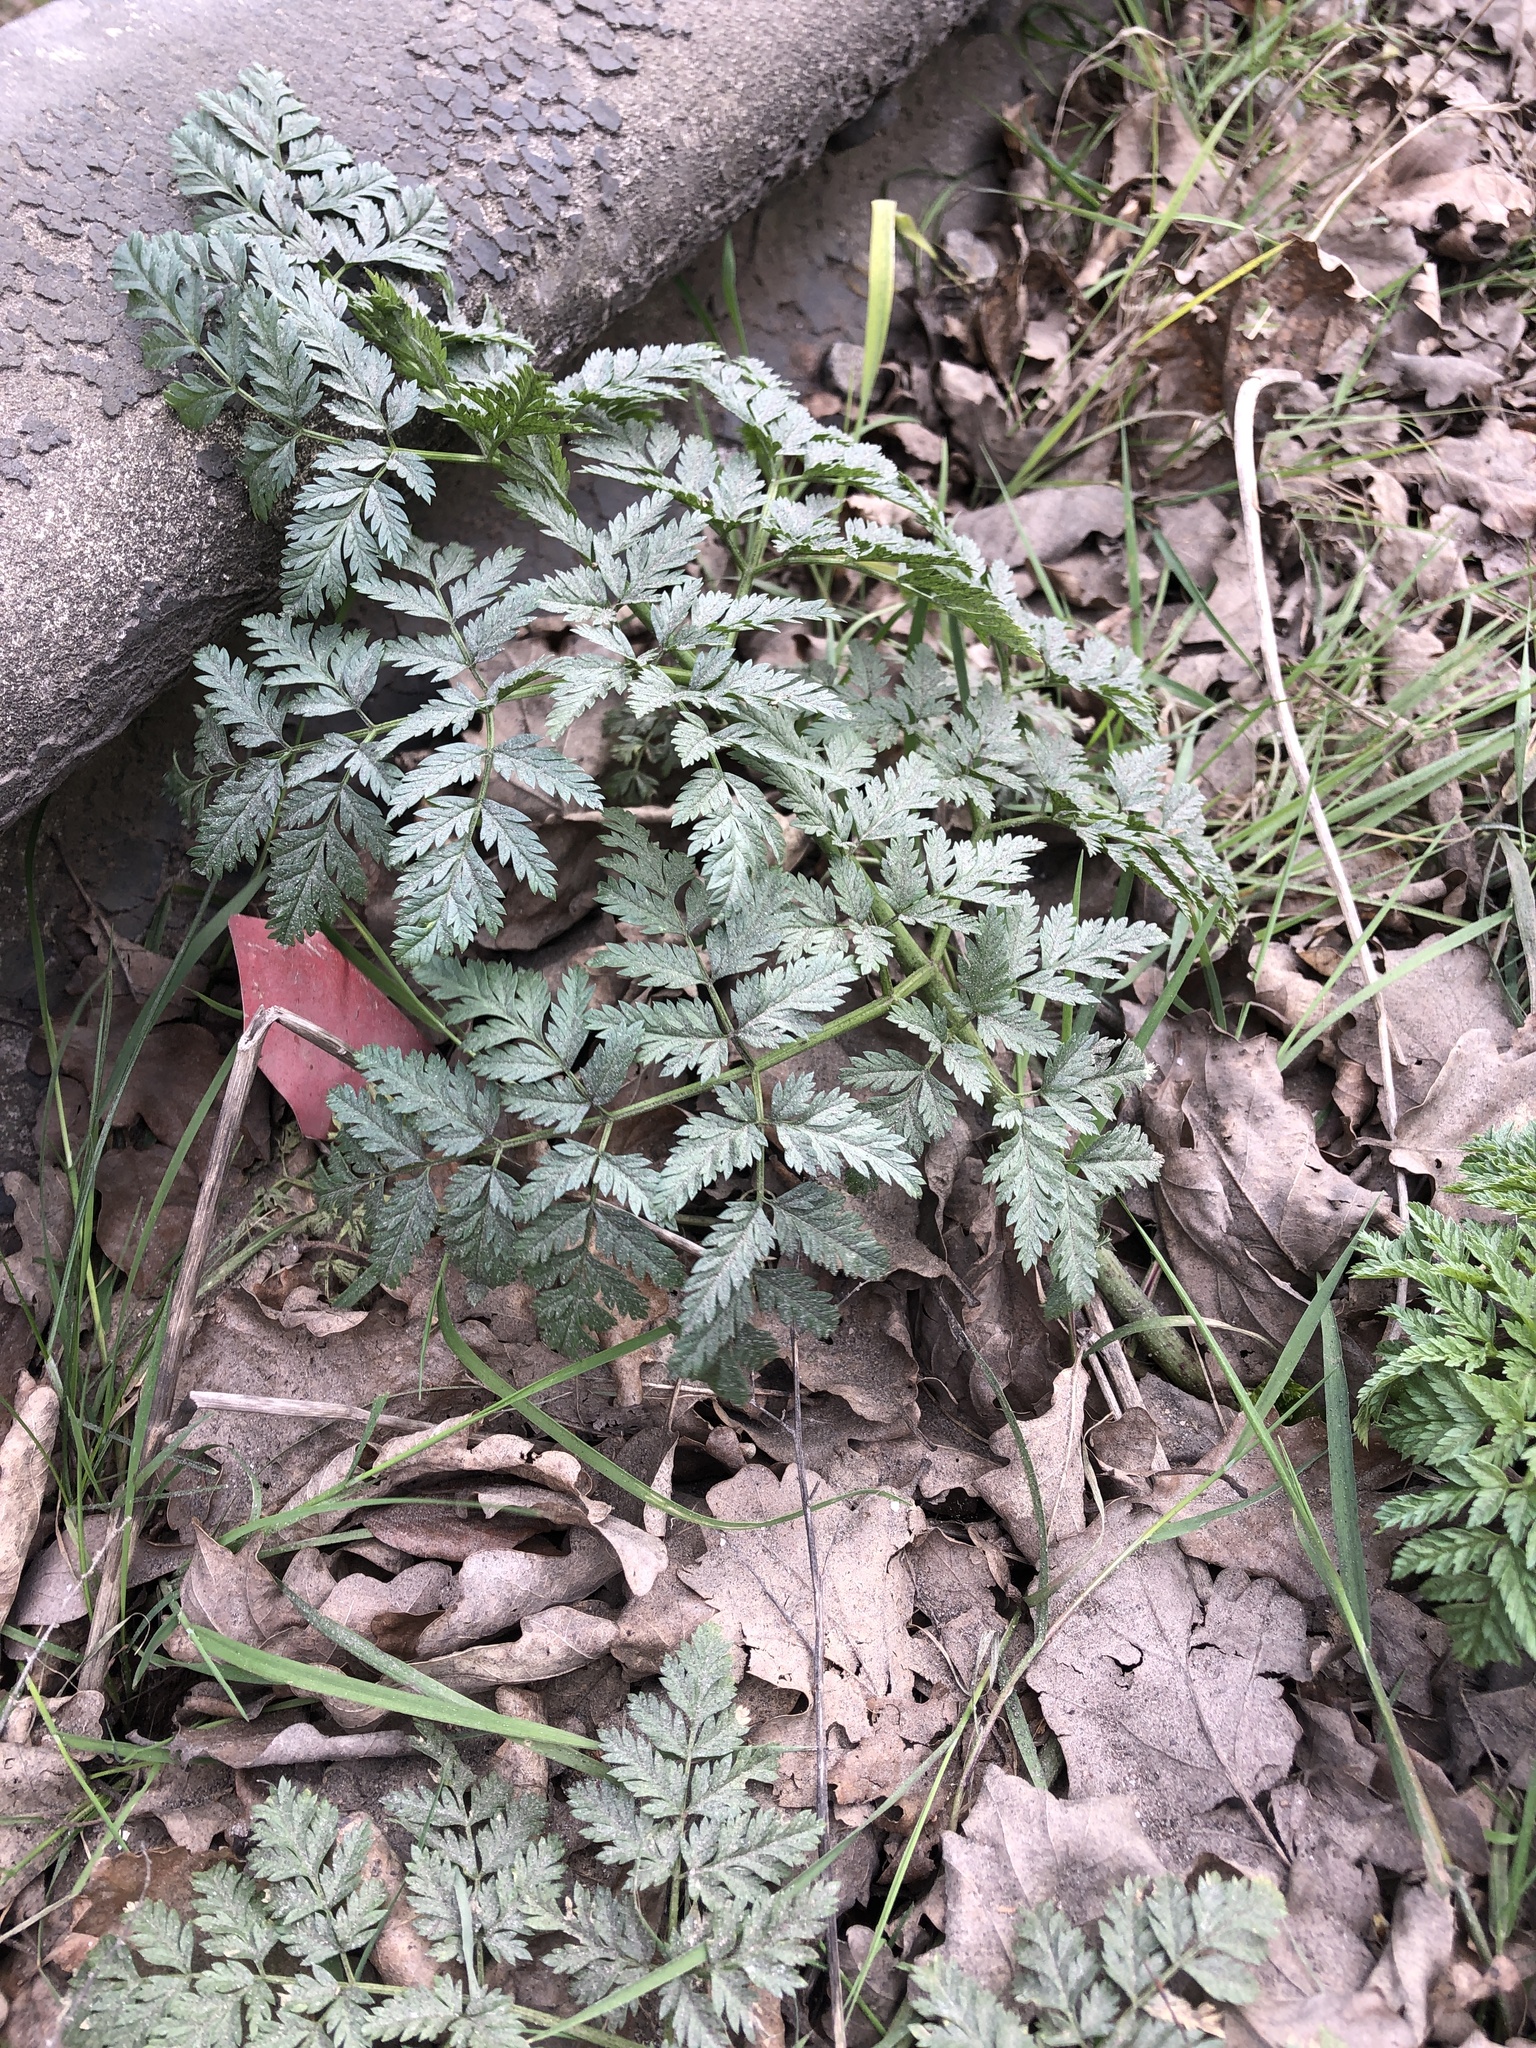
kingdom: Plantae
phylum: Tracheophyta
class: Magnoliopsida
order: Apiales
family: Apiaceae
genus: Anthriscus
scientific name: Anthriscus sylvestris
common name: Cow parsley
